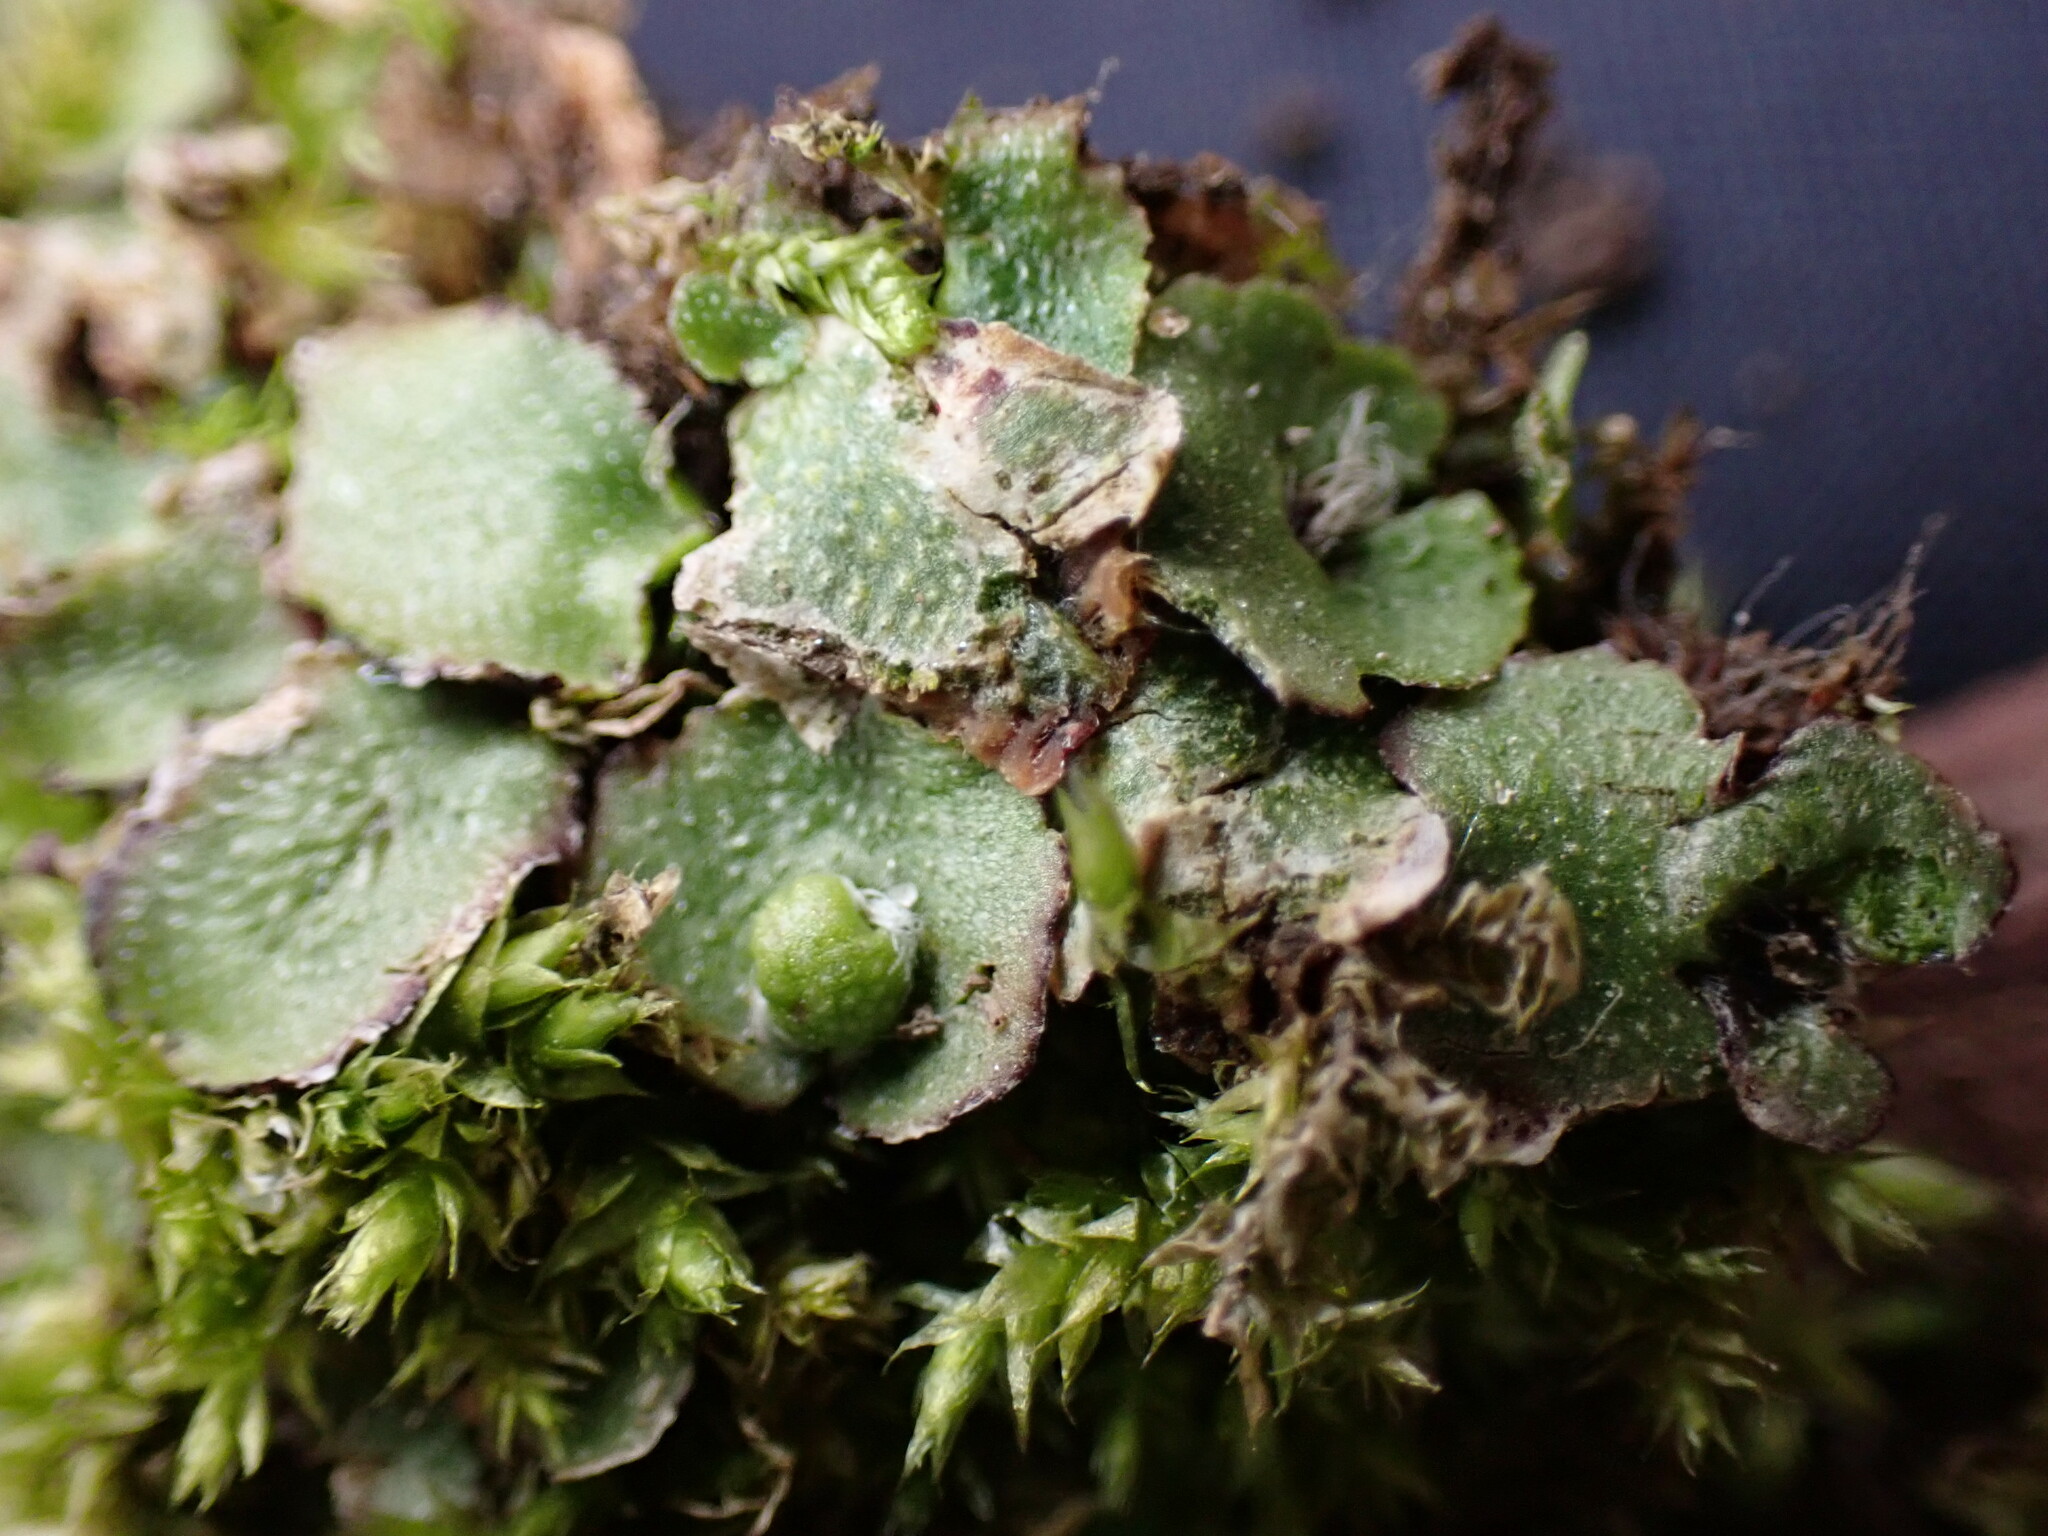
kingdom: Plantae
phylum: Marchantiophyta
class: Marchantiopsida
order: Marchantiales
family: Aytoniaceae
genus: Reboulia
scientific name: Reboulia hemisphaerica
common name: Purple-margined liverwort
